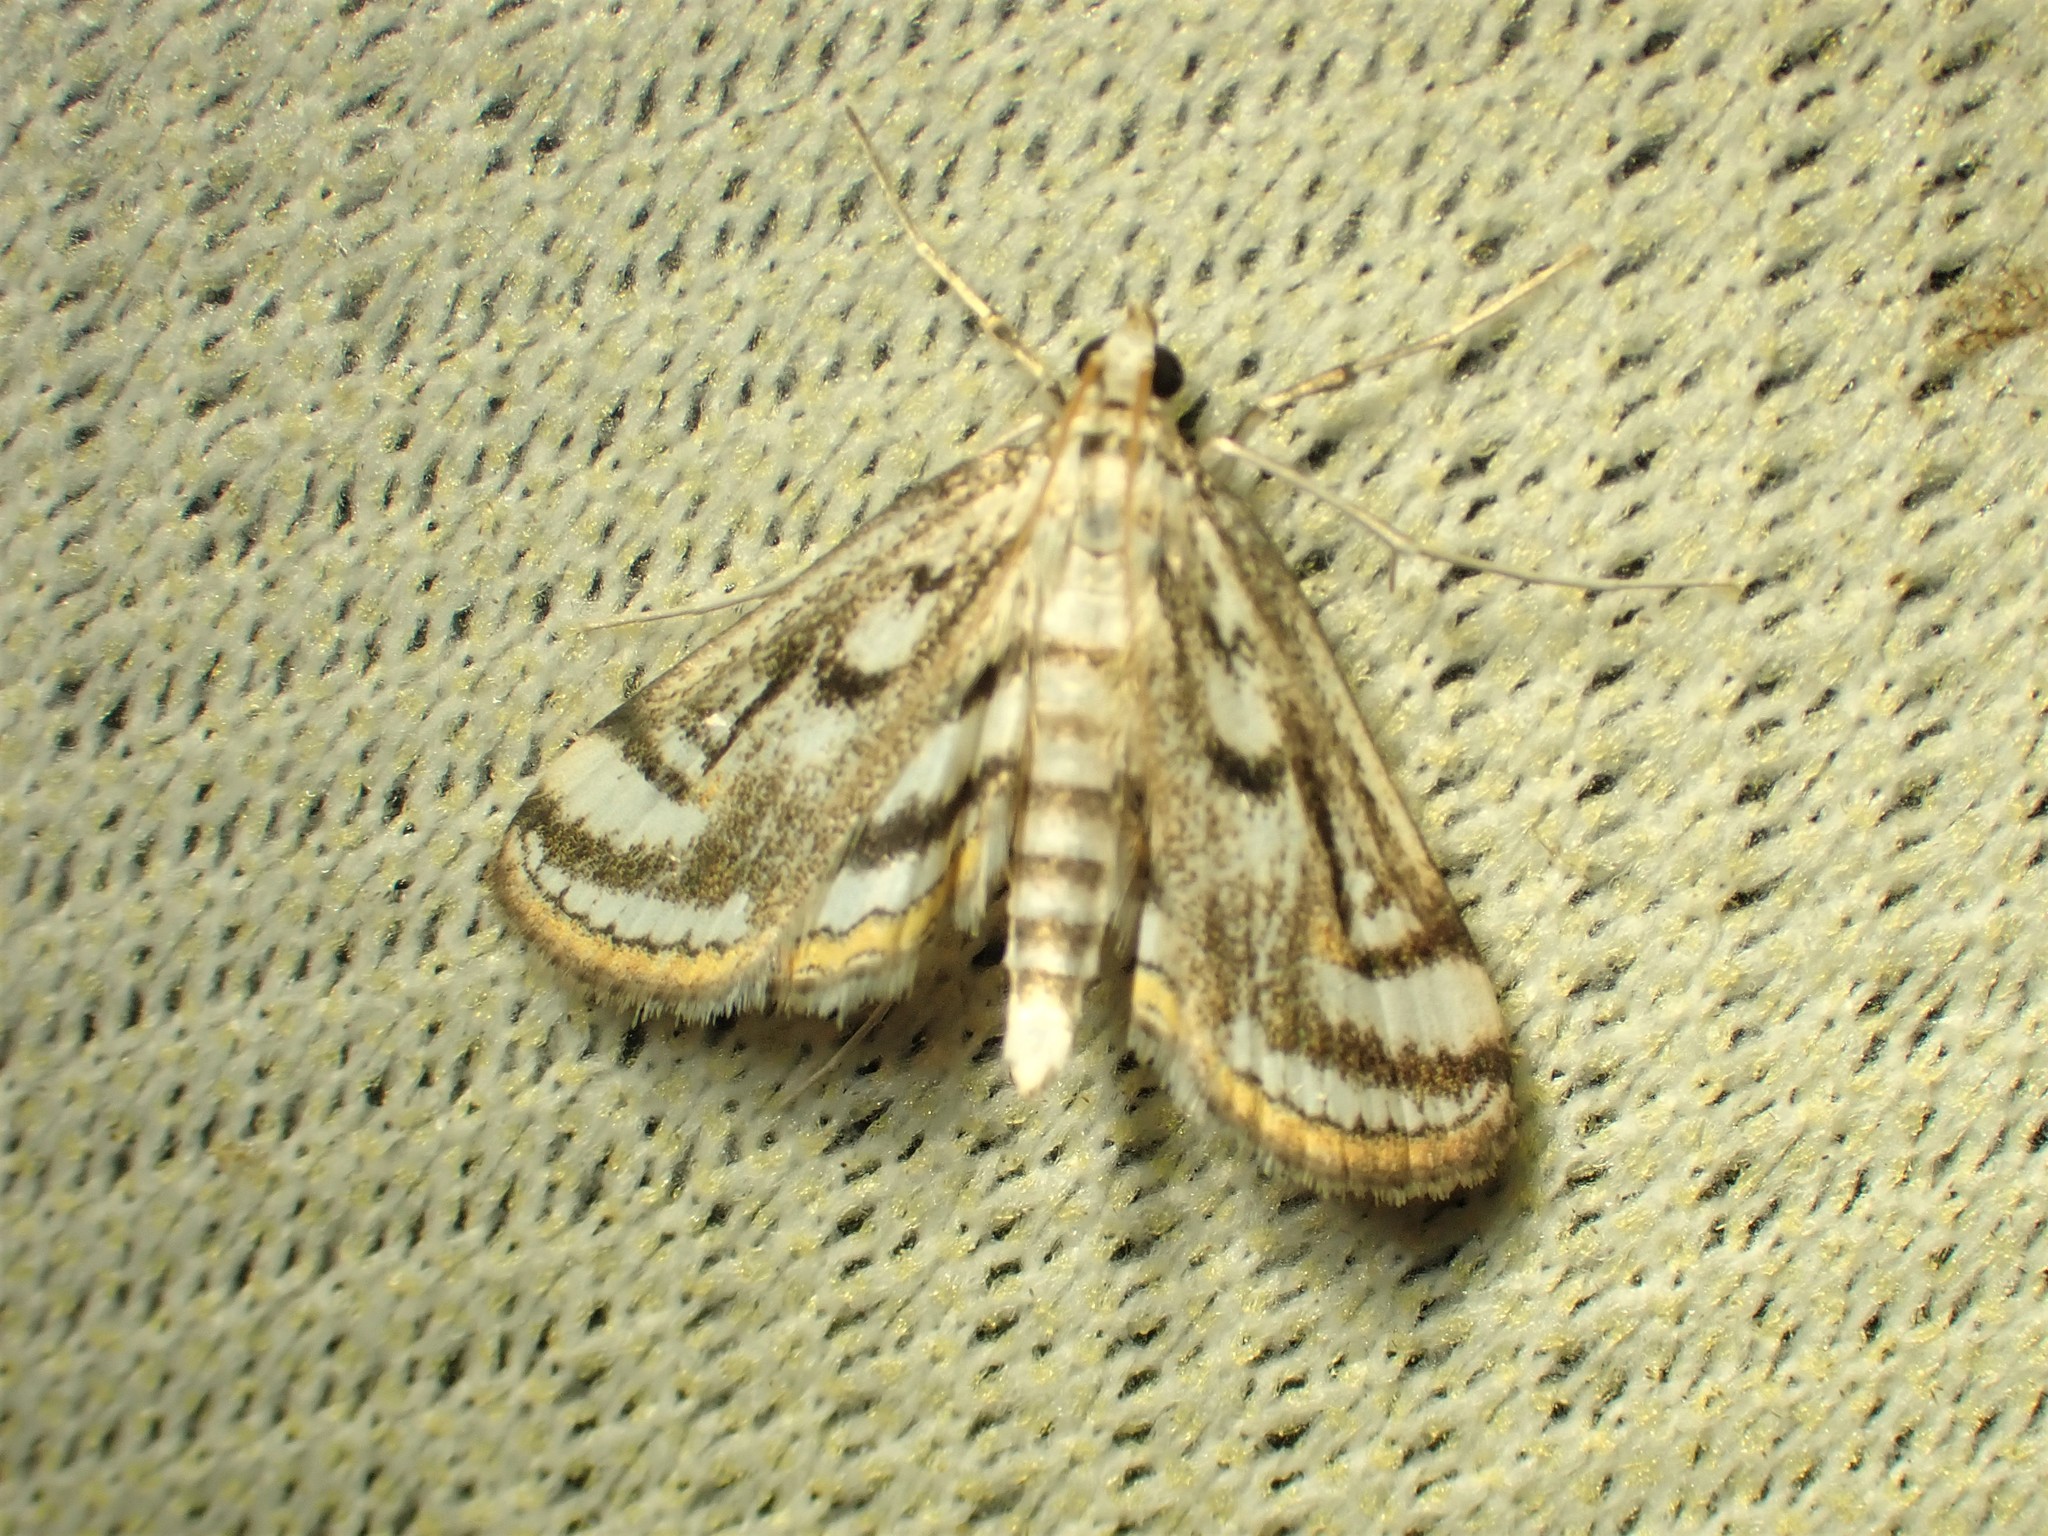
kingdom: Animalia
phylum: Arthropoda
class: Insecta
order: Lepidoptera
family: Crambidae
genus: Parapoynx
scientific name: Parapoynx badiusalis
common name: Chestnut-marked pondweed moth
